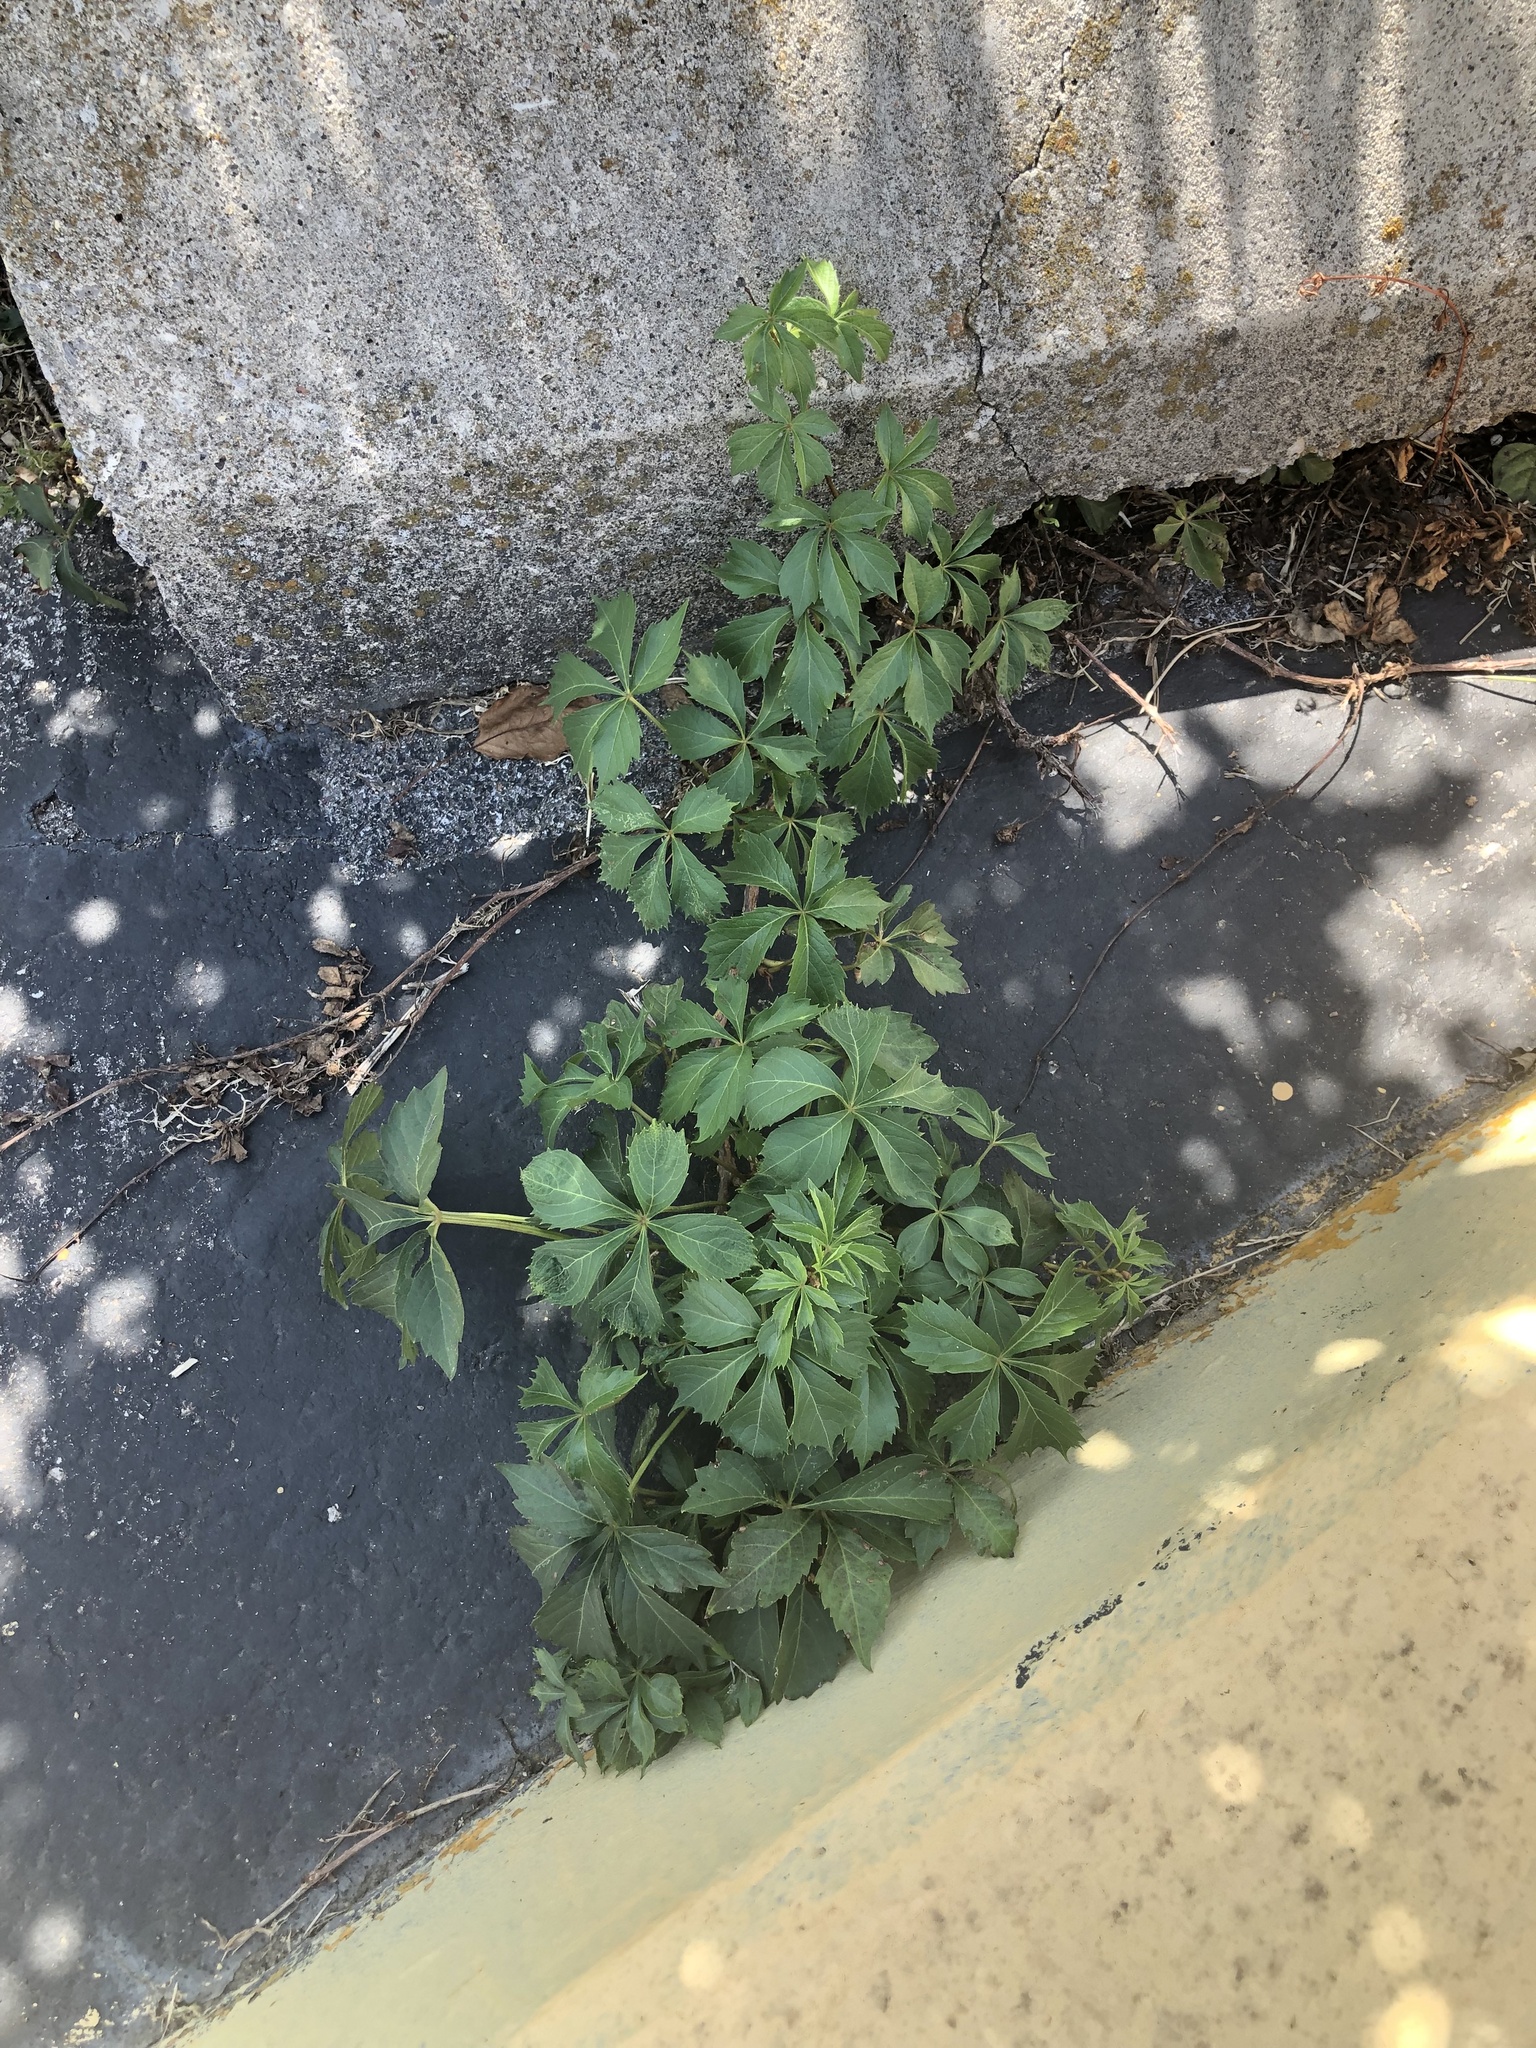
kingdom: Plantae
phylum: Tracheophyta
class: Magnoliopsida
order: Vitales
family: Vitaceae
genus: Parthenocissus
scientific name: Parthenocissus quinquefolia
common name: Virginia-creeper
